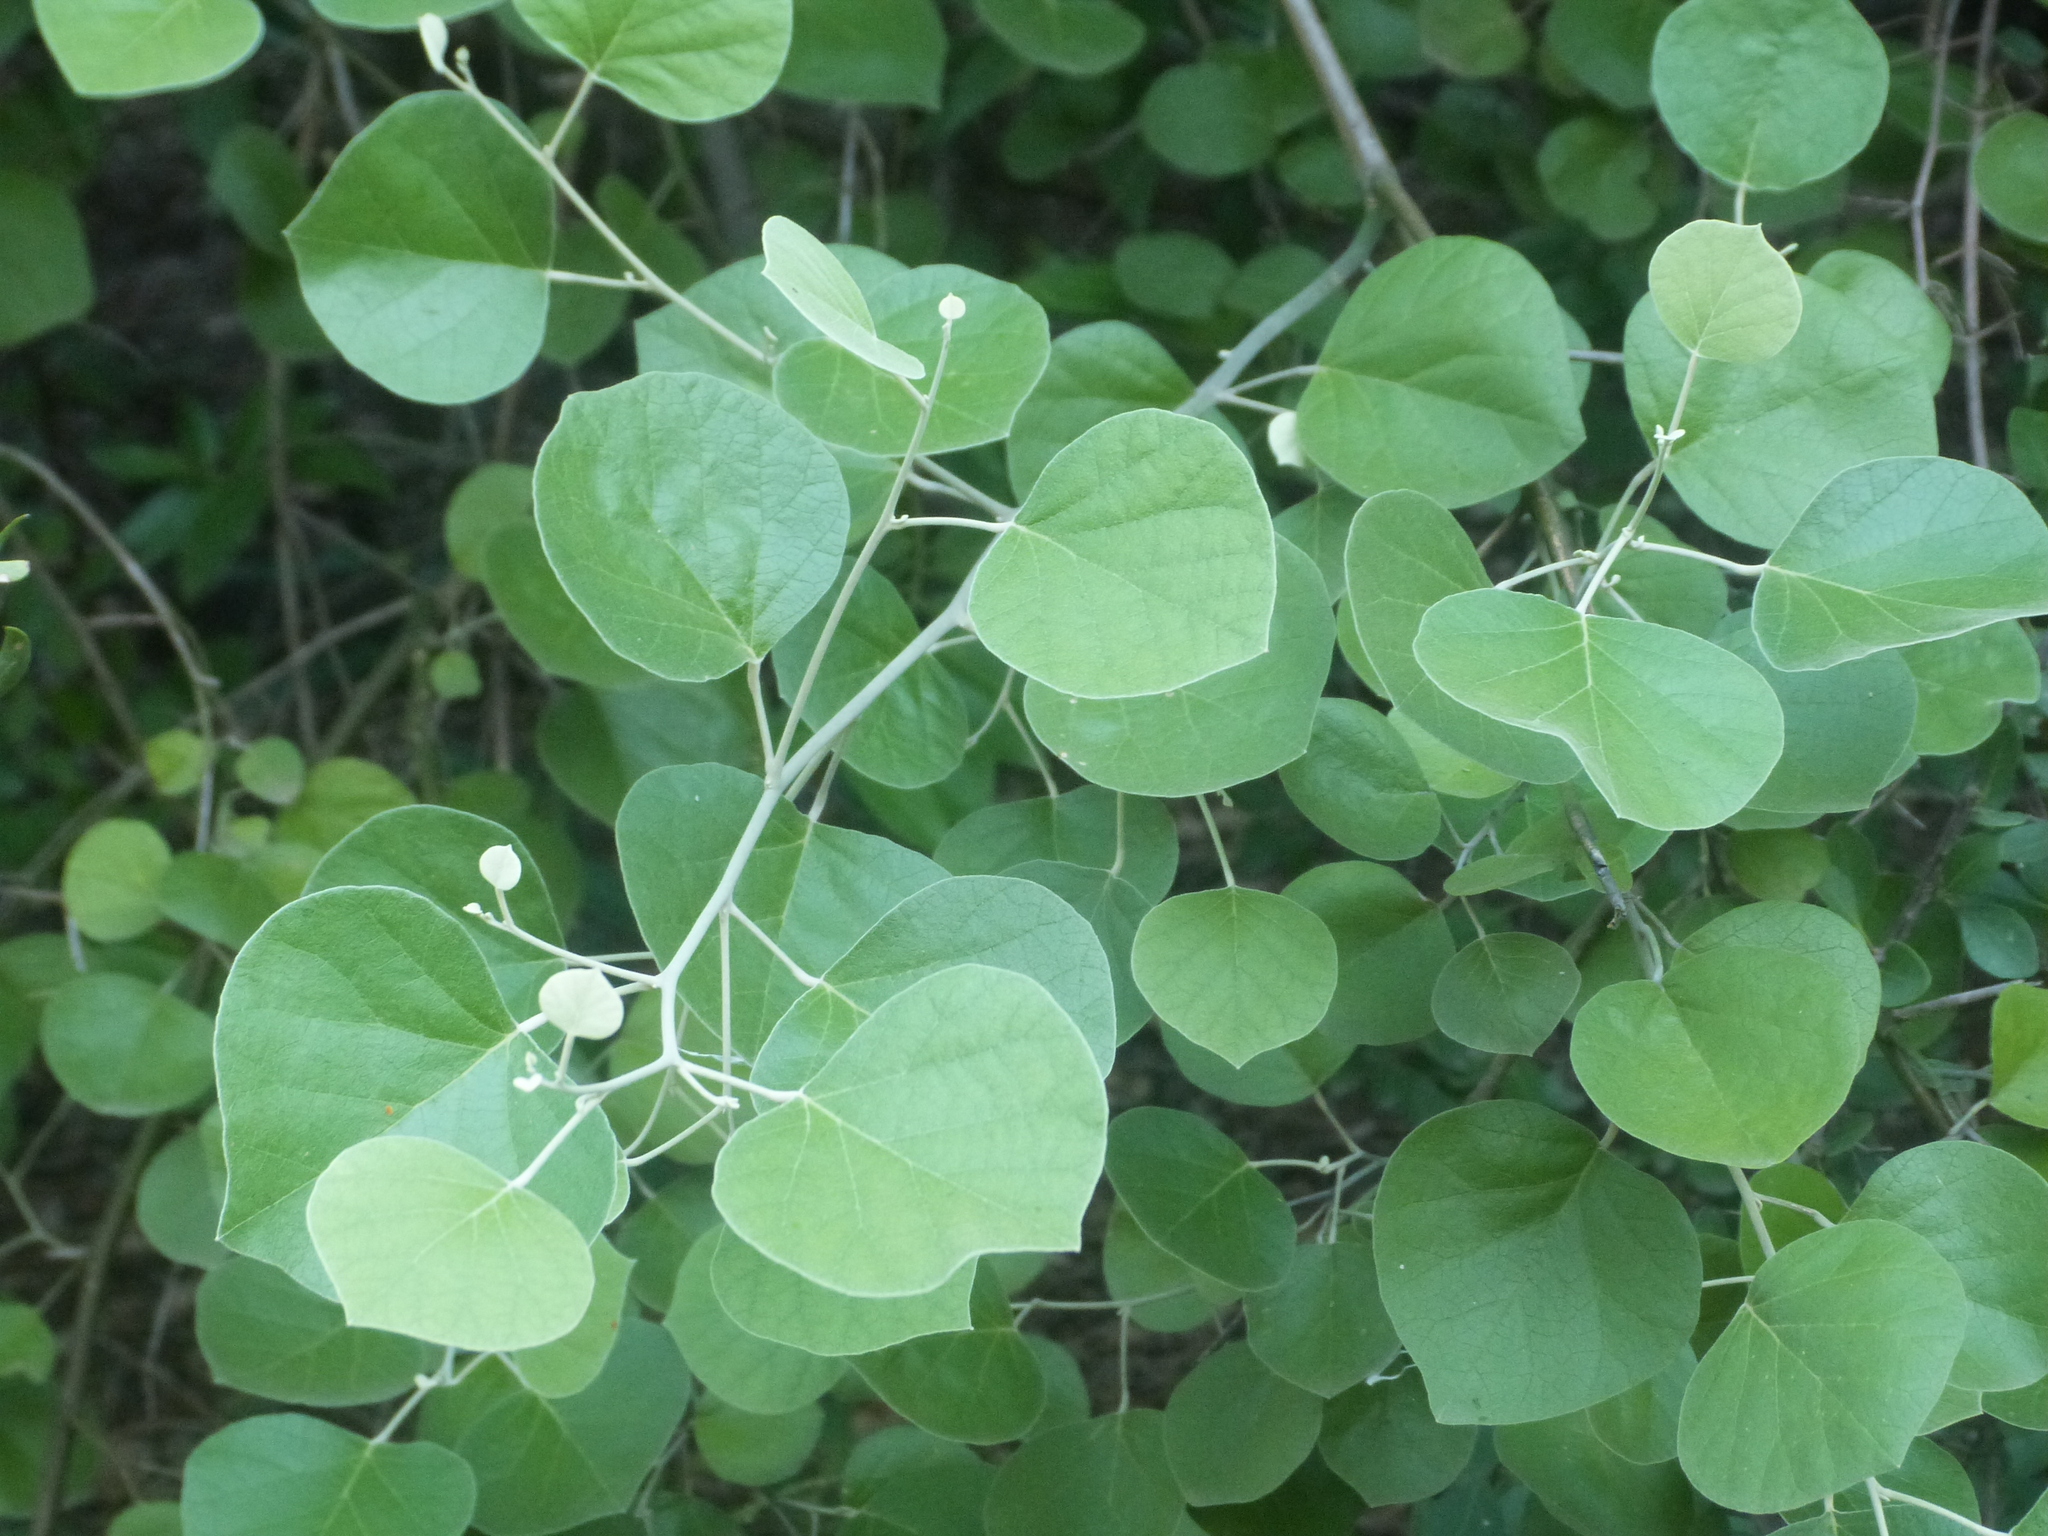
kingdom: Plantae
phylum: Tracheophyta
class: Magnoliopsida
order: Brassicales
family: Capparaceae
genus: Capparicordis
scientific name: Capparicordis tweedieana
